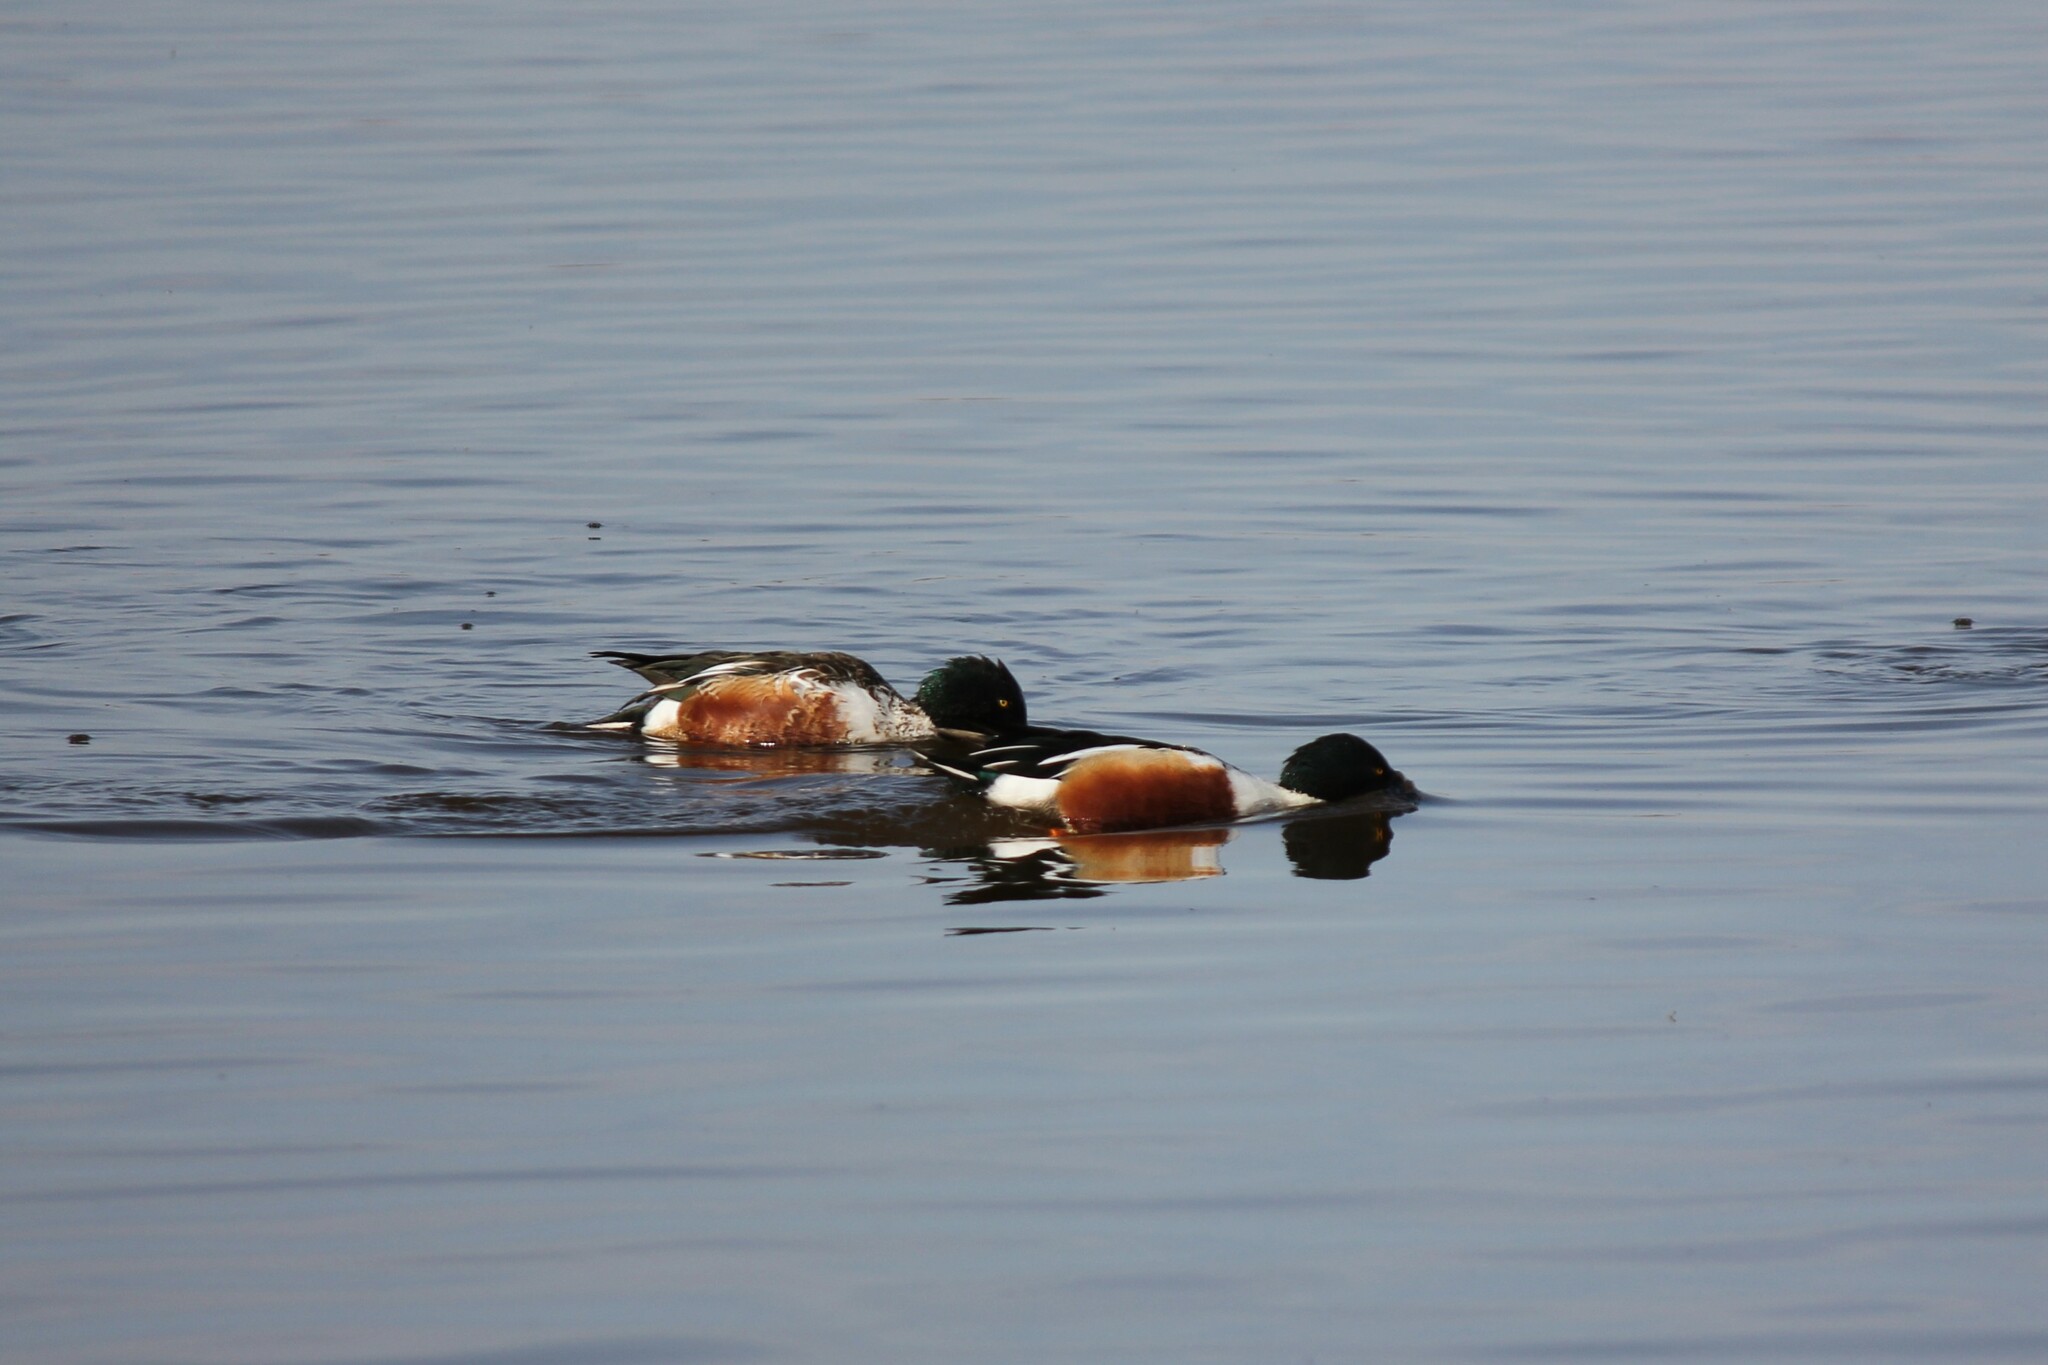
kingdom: Animalia
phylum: Chordata
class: Aves
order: Anseriformes
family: Anatidae
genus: Spatula
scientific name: Spatula clypeata
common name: Northern shoveler
